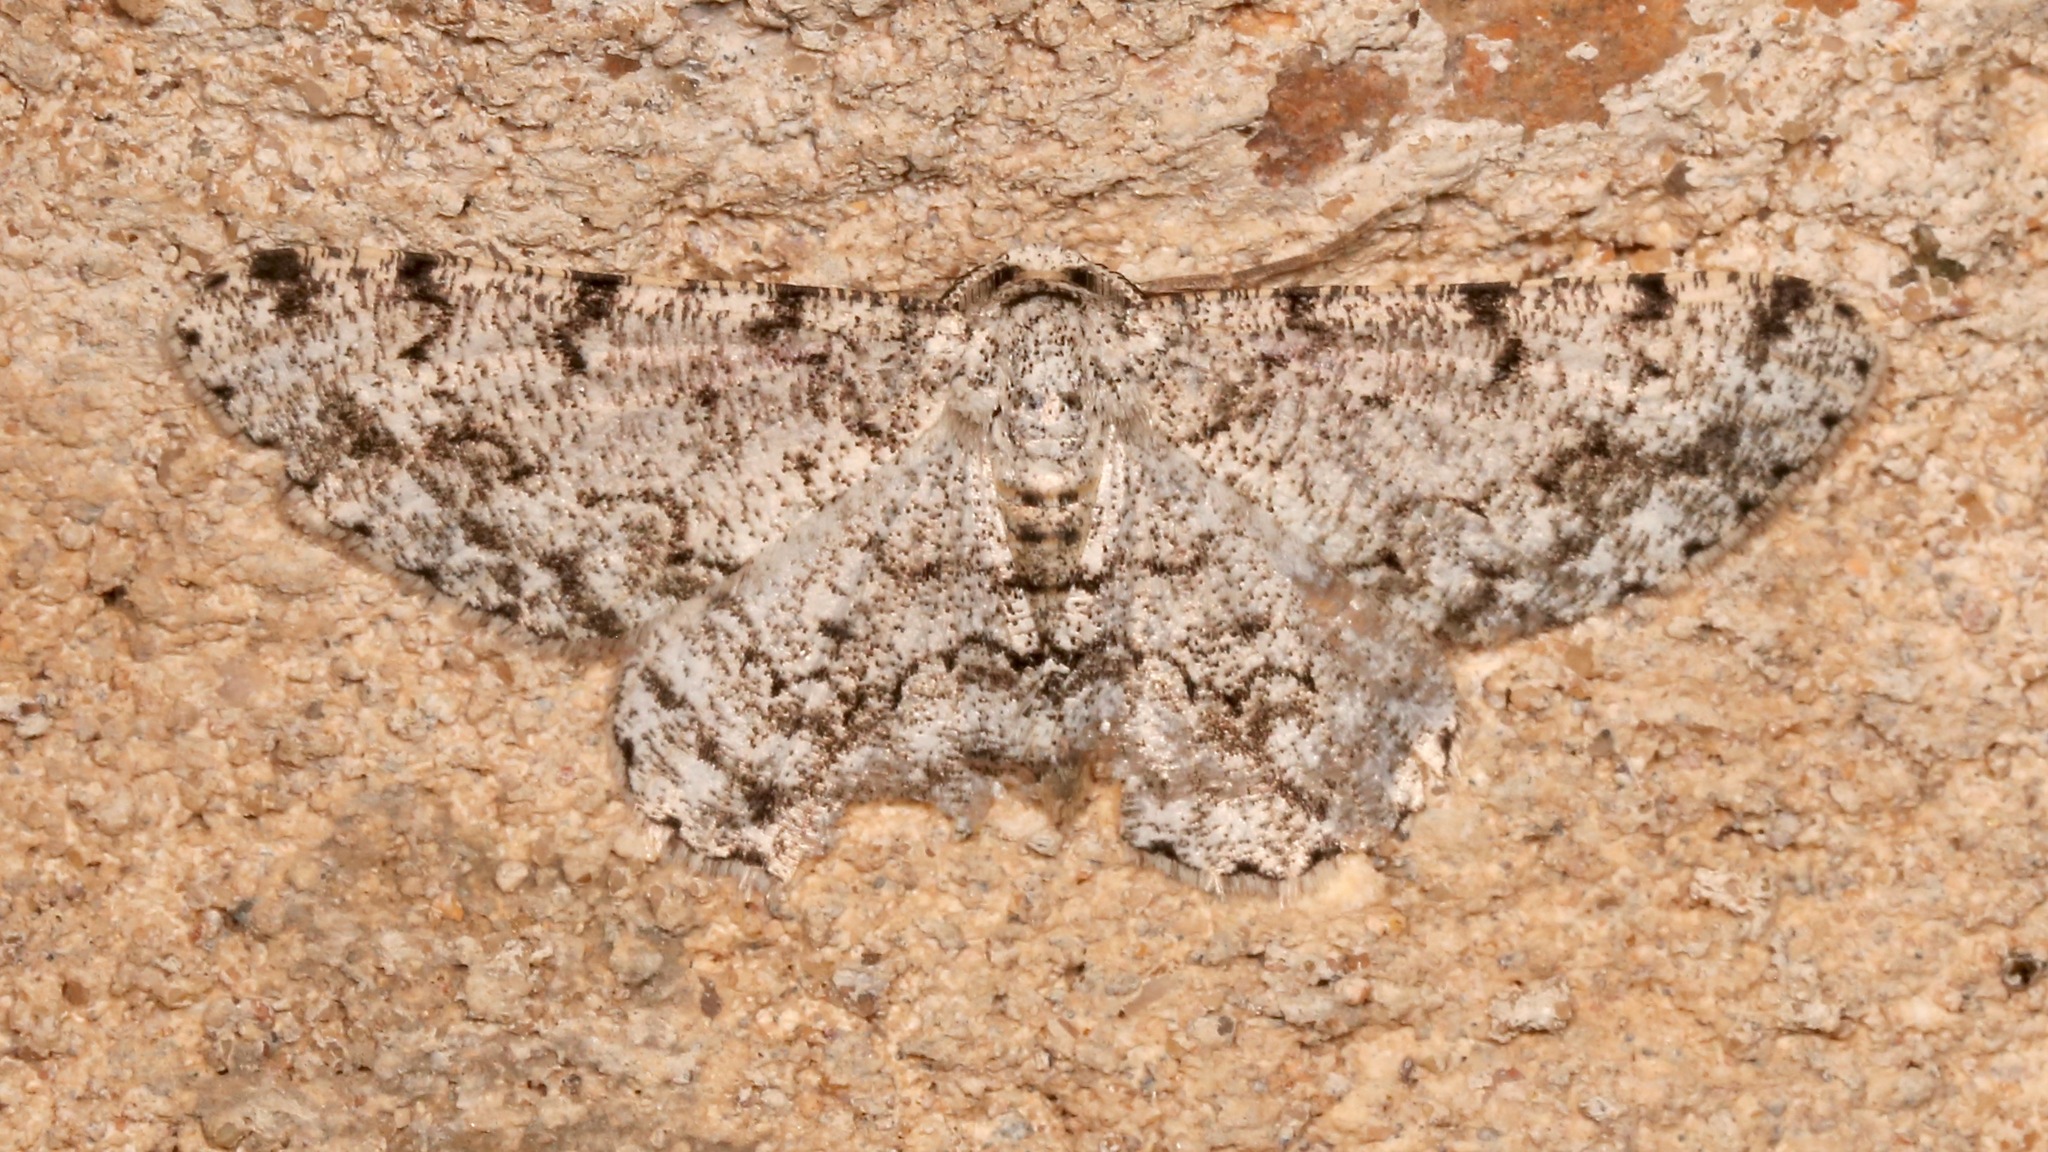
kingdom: Animalia
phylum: Arthropoda
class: Insecta
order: Lepidoptera
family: Geometridae
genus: Glena
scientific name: Glena grisearia
